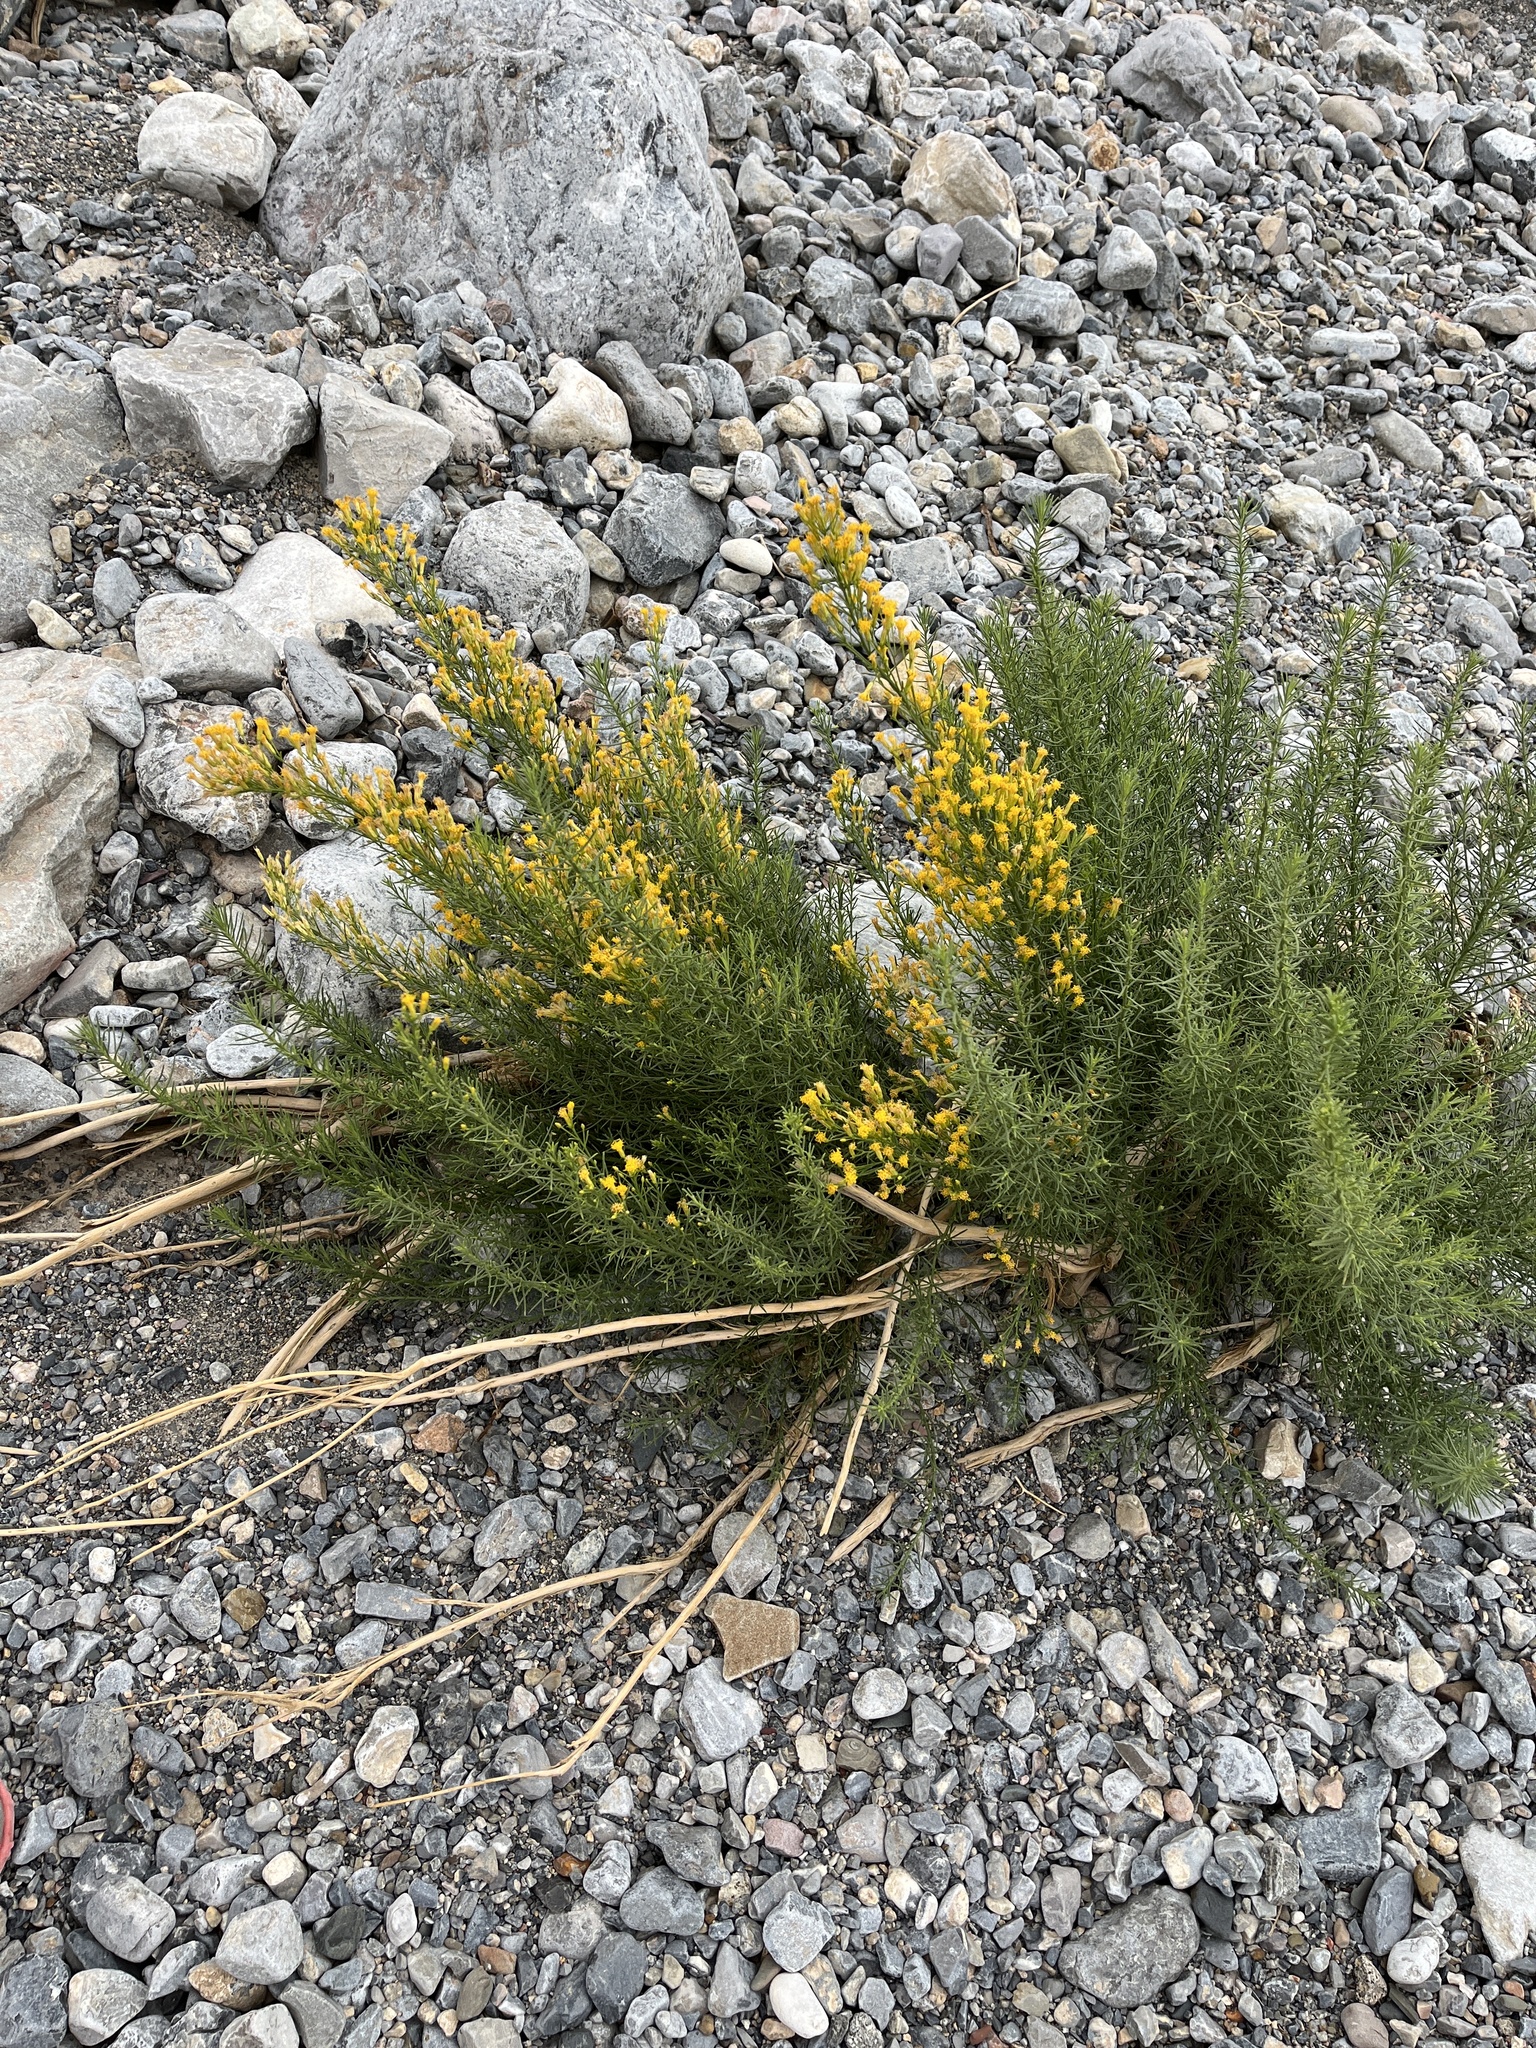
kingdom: Plantae
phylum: Tracheophyta
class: Magnoliopsida
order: Asterales
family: Asteraceae
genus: Ericameria
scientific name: Ericameria paniculata
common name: Punctate rabbitbrush
